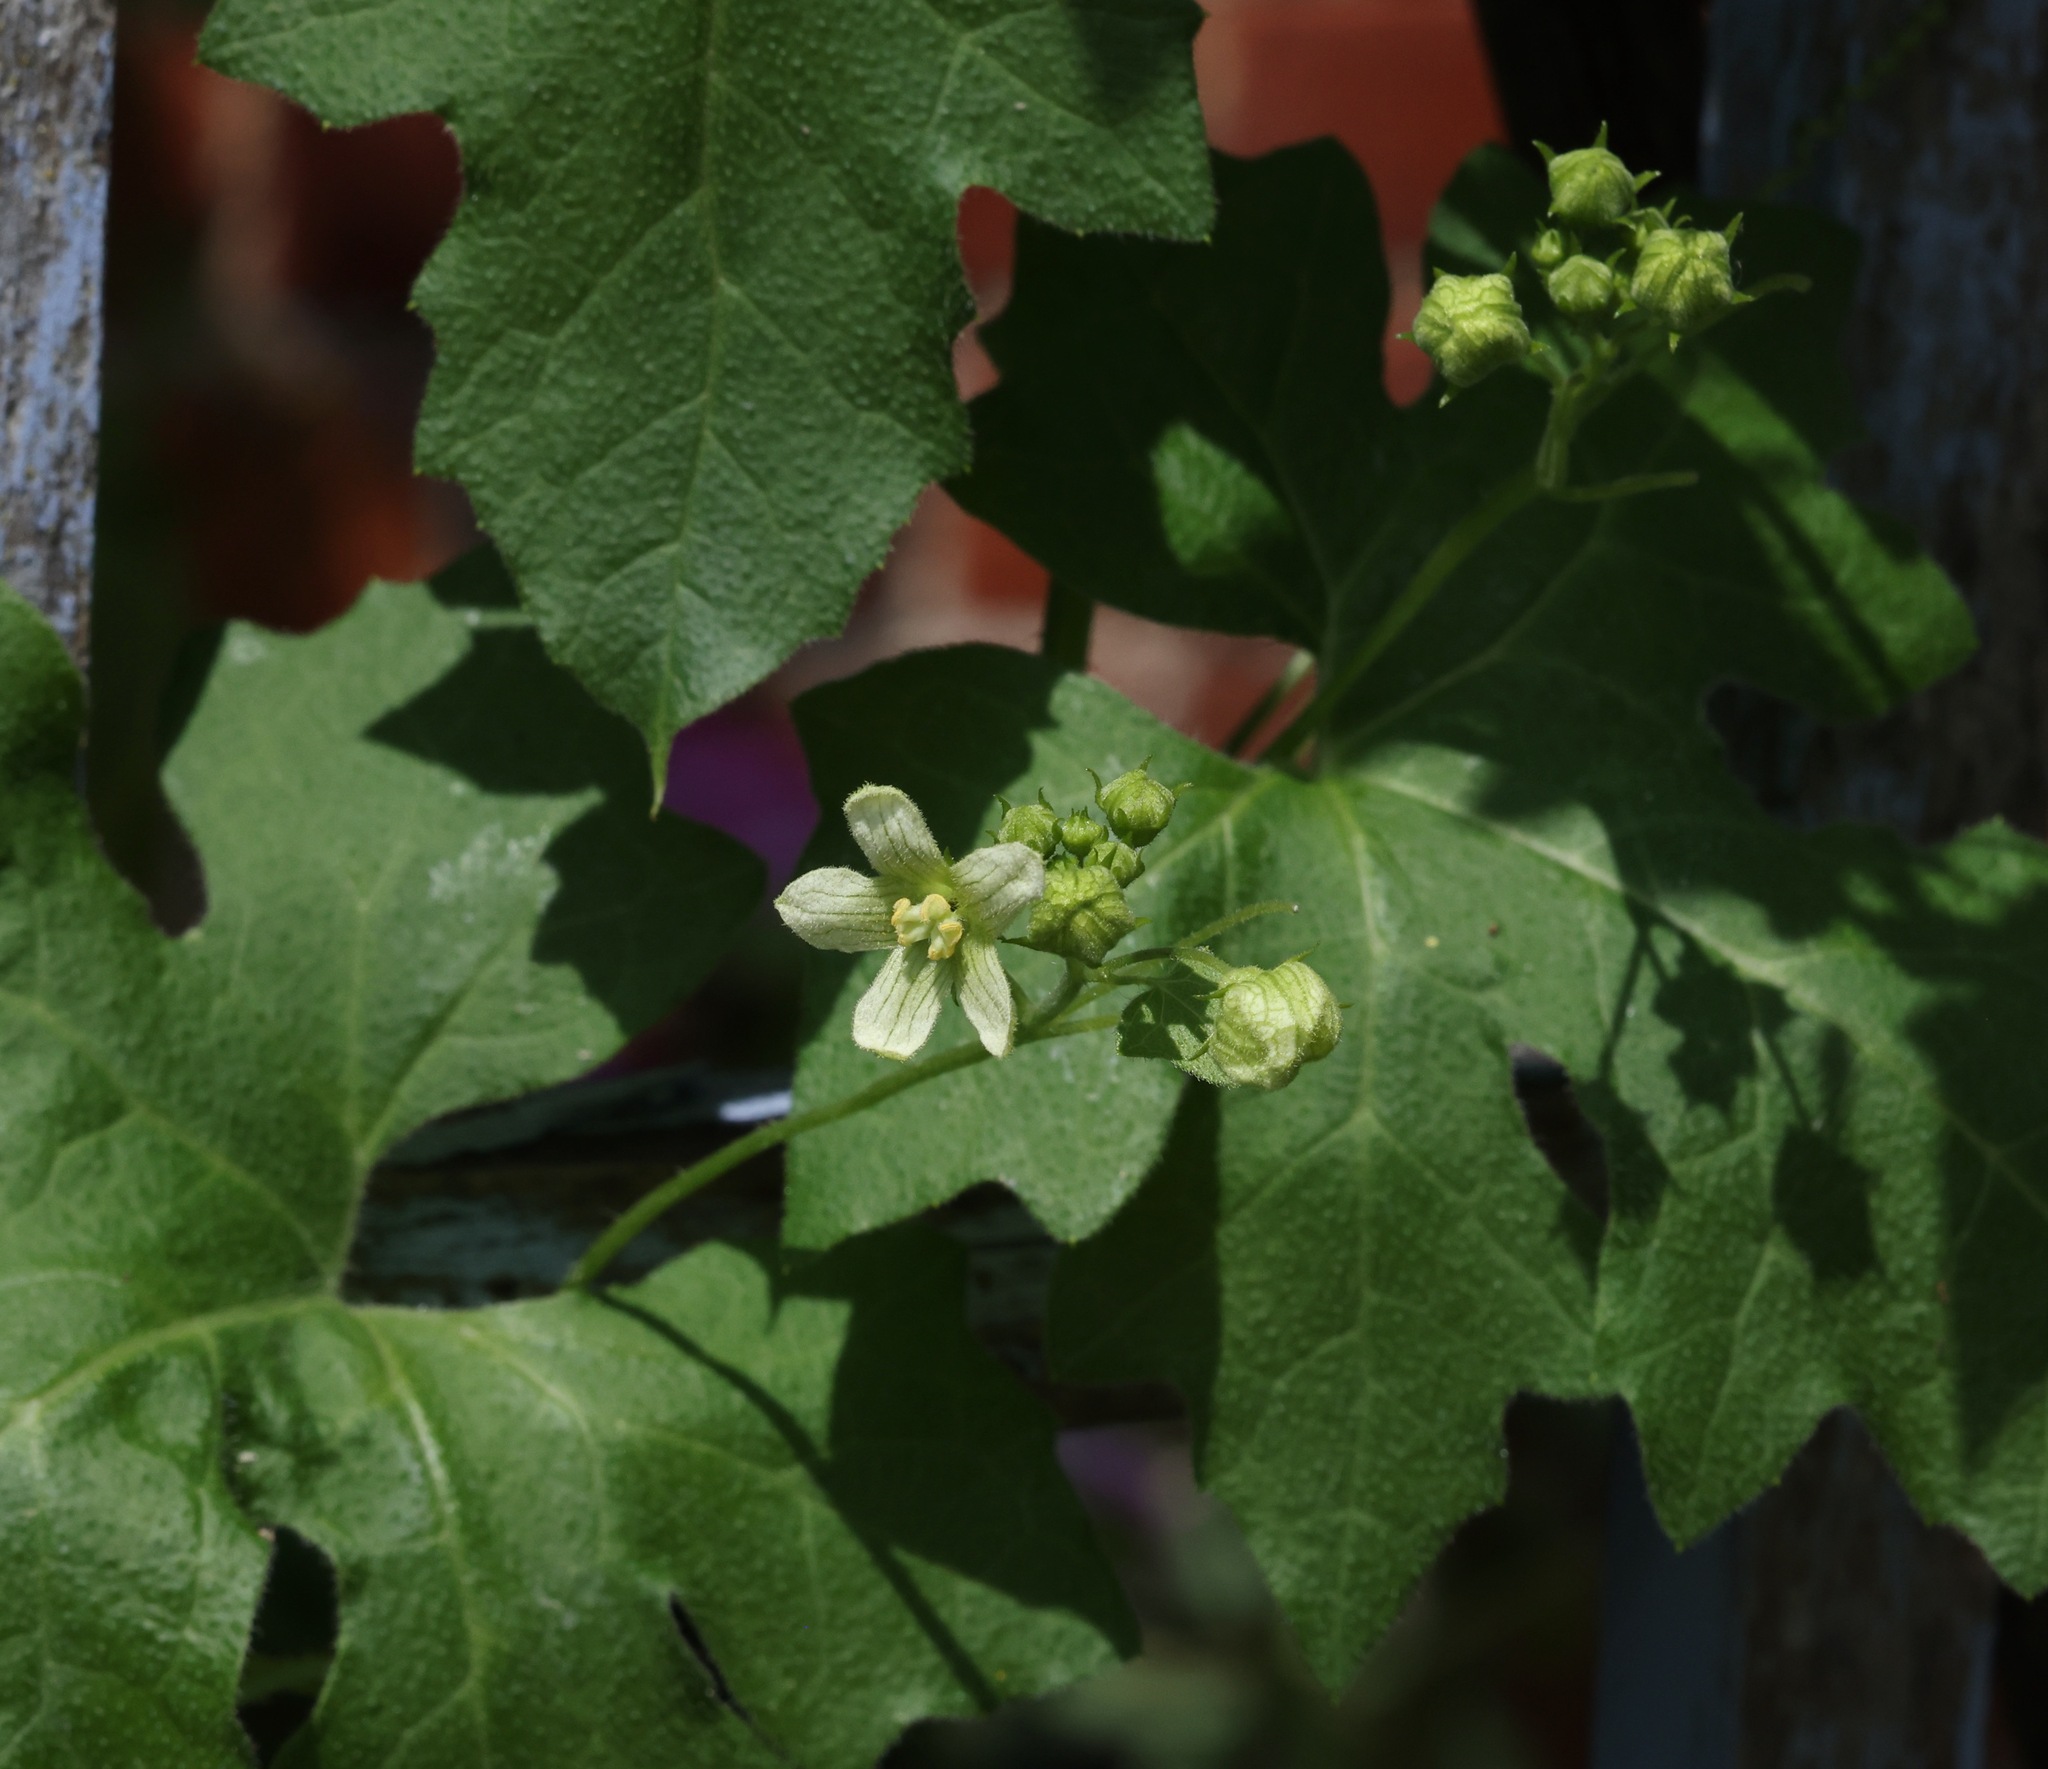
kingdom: Plantae
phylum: Tracheophyta
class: Magnoliopsida
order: Cucurbitales
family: Cucurbitaceae
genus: Bryonia
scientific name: Bryonia cretica
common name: Cretan bryony
